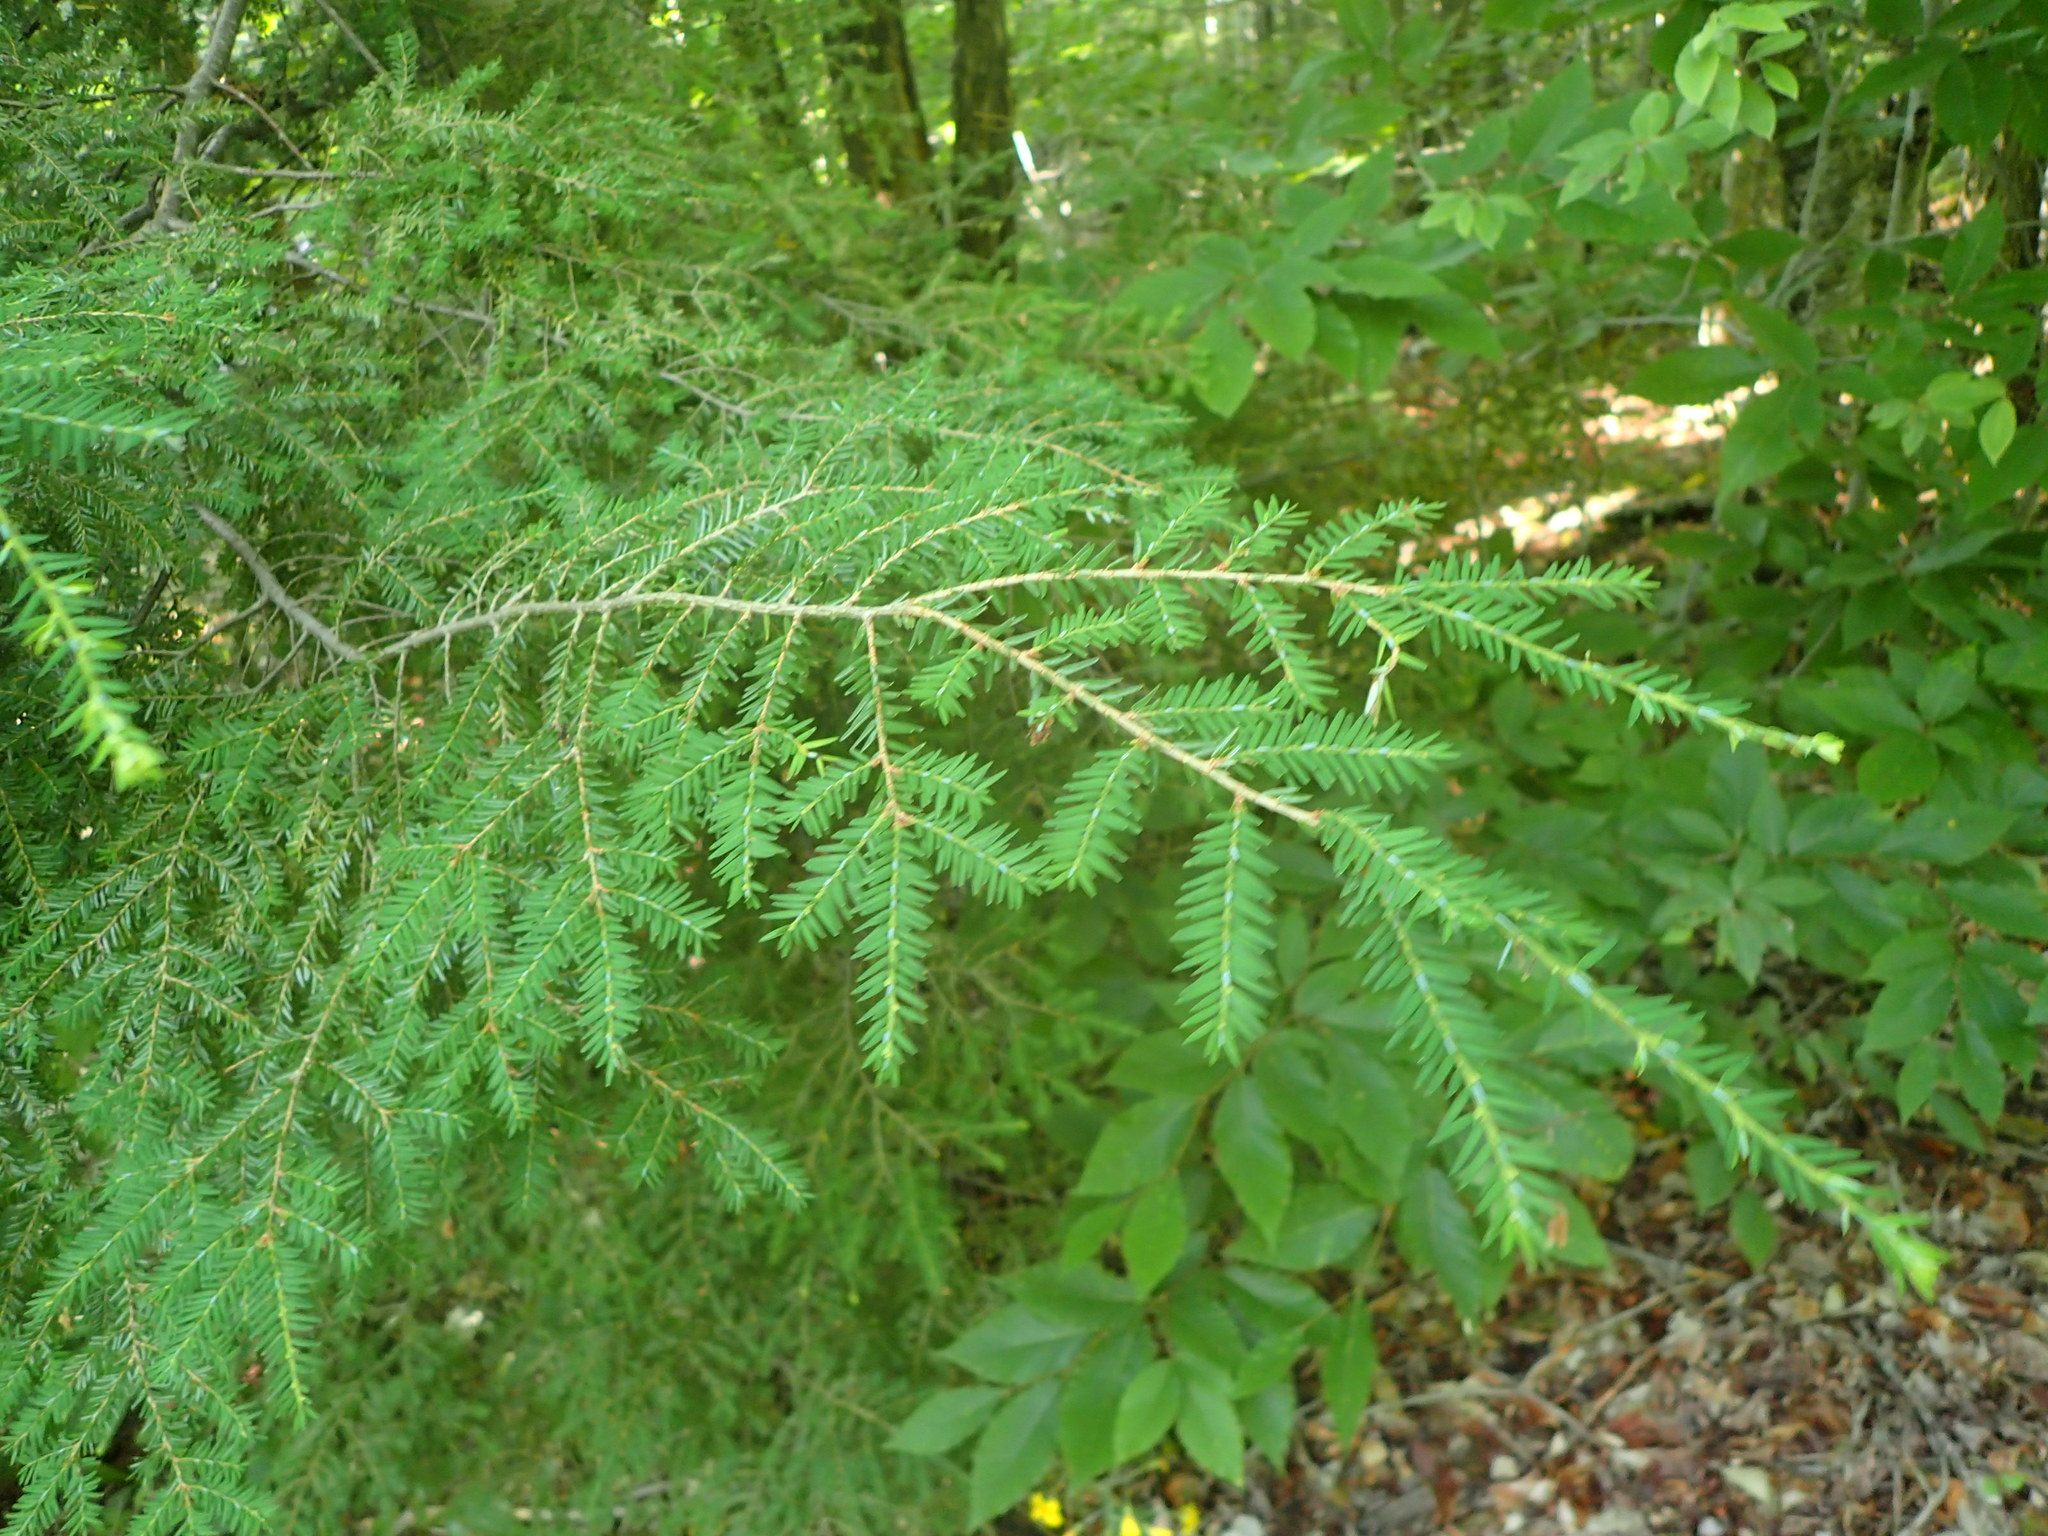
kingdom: Plantae
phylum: Tracheophyta
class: Pinopsida
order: Pinales
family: Pinaceae
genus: Tsuga
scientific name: Tsuga canadensis
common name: Eastern hemlock
